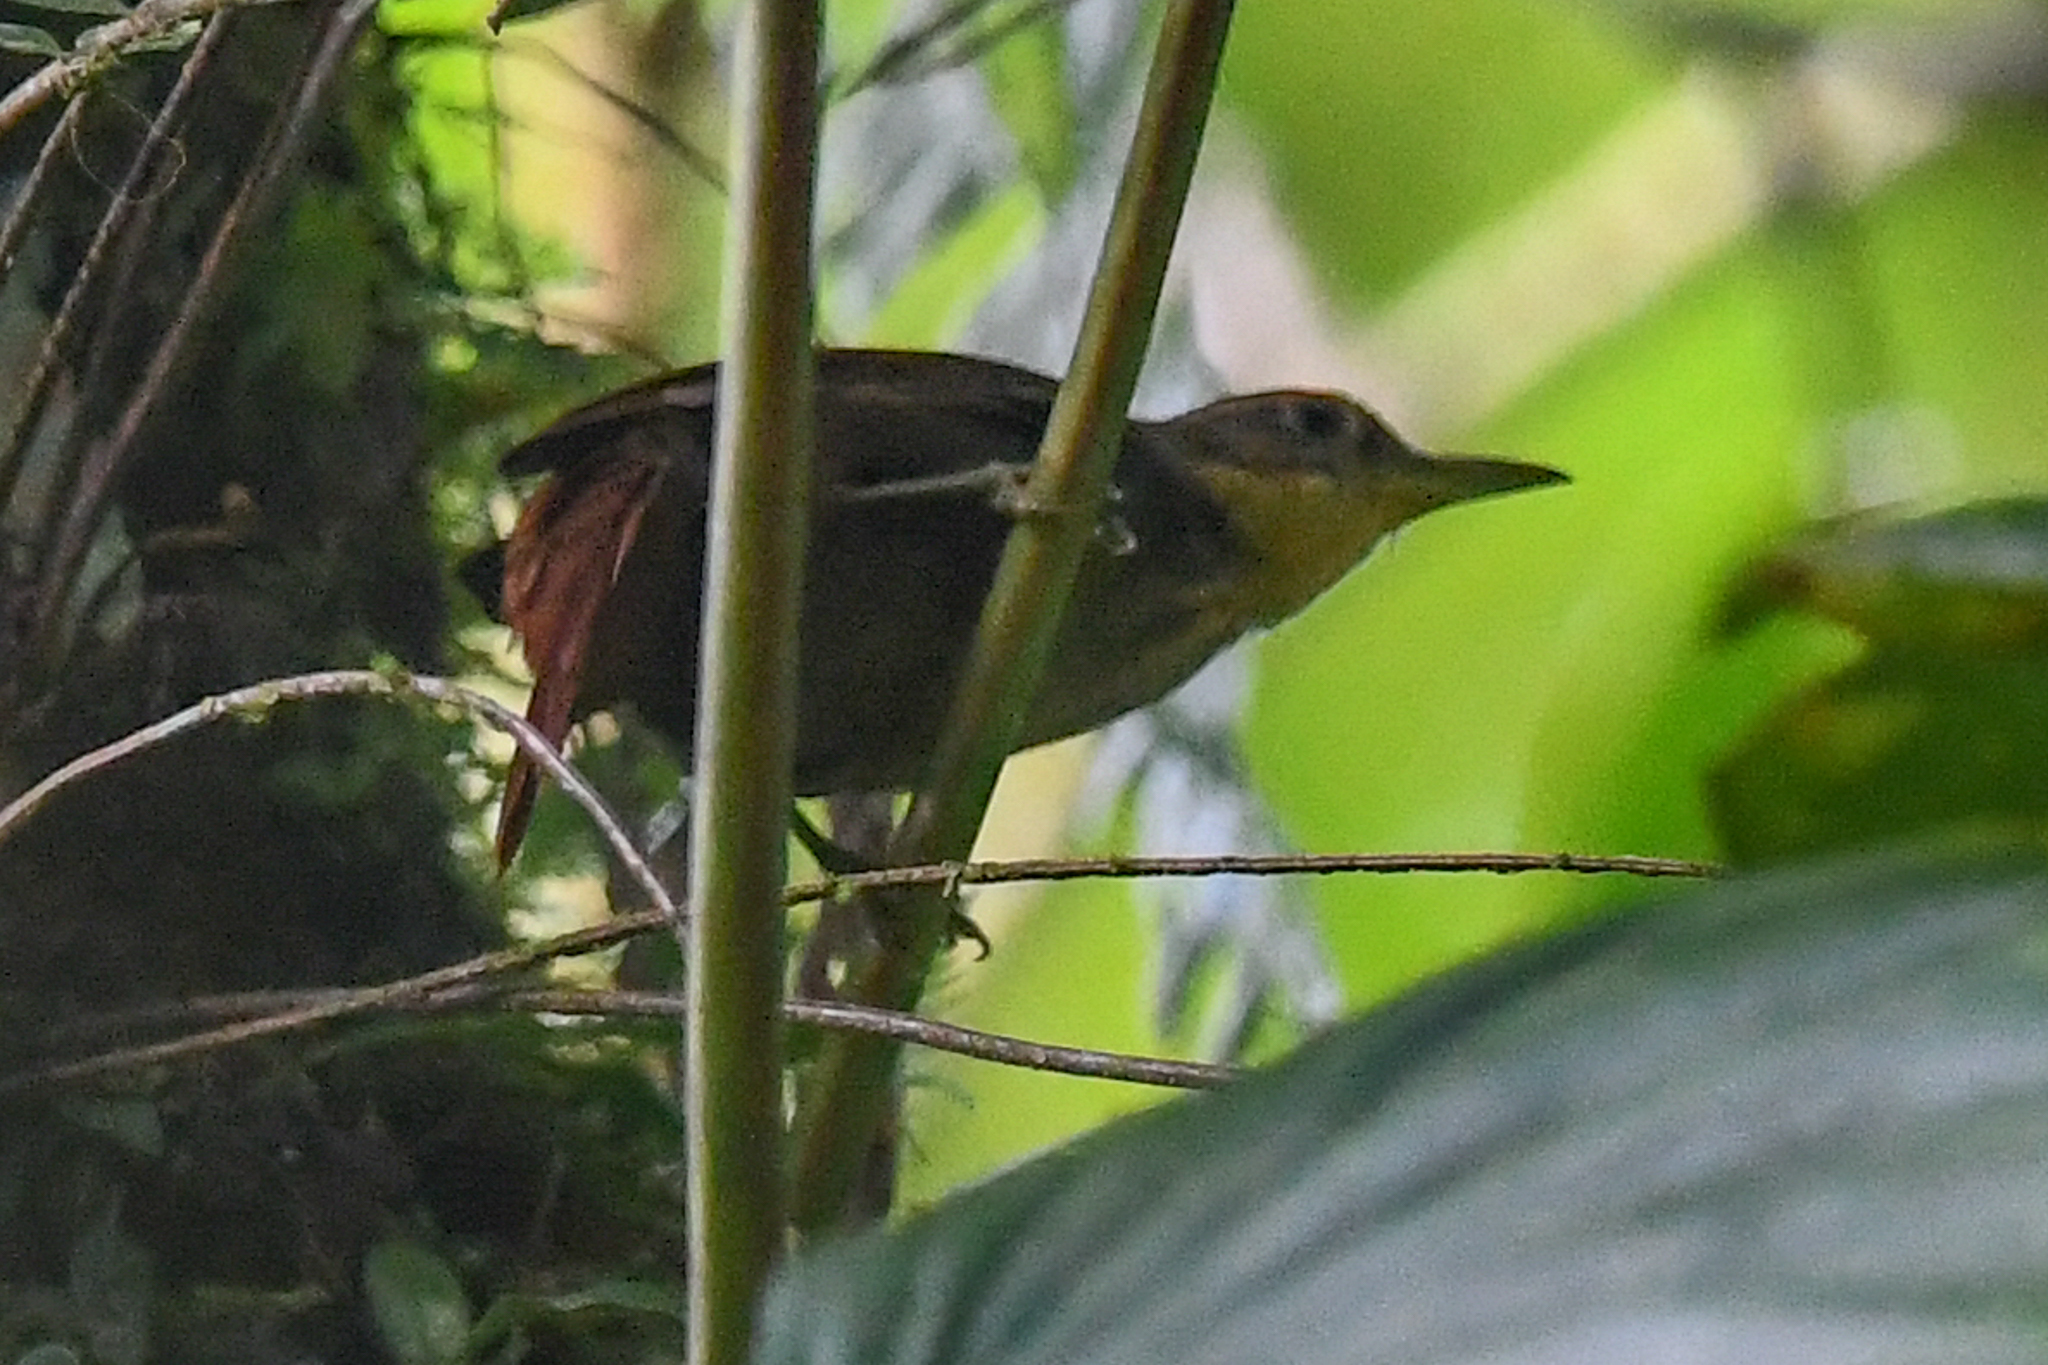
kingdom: Animalia
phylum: Chordata
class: Aves
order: Passeriformes
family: Furnariidae
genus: Automolus
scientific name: Automolus ochrolaemus
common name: Buff-throated foliage-gleaner
